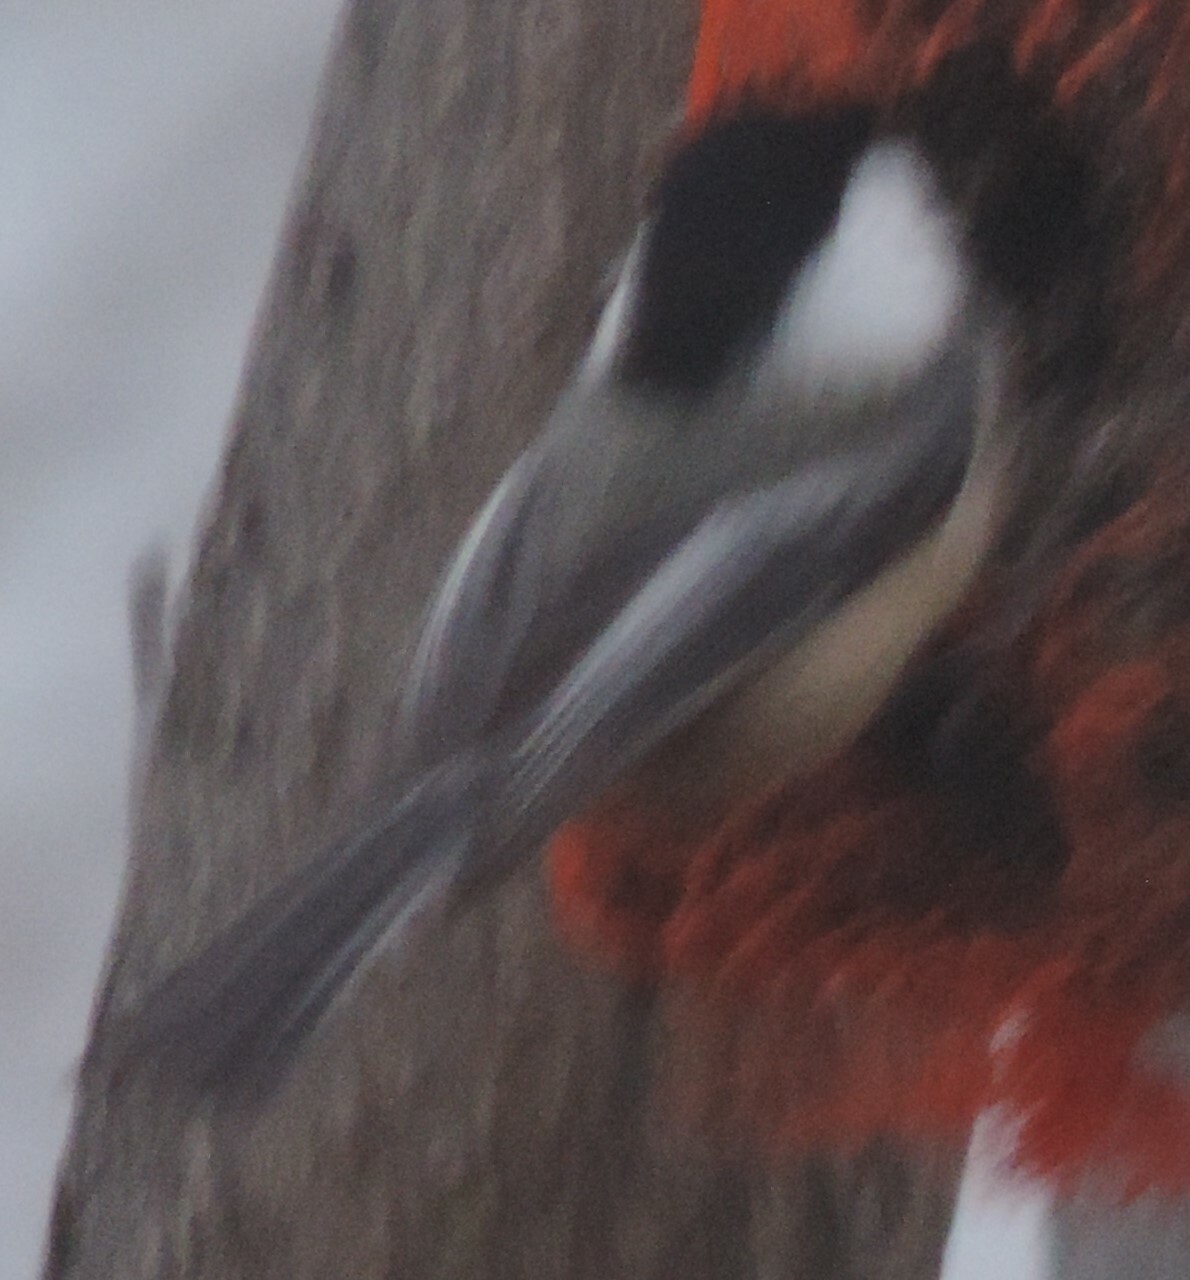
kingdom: Animalia
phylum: Chordata
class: Aves
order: Passeriformes
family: Paridae
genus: Poecile
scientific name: Poecile atricapillus
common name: Black-capped chickadee
